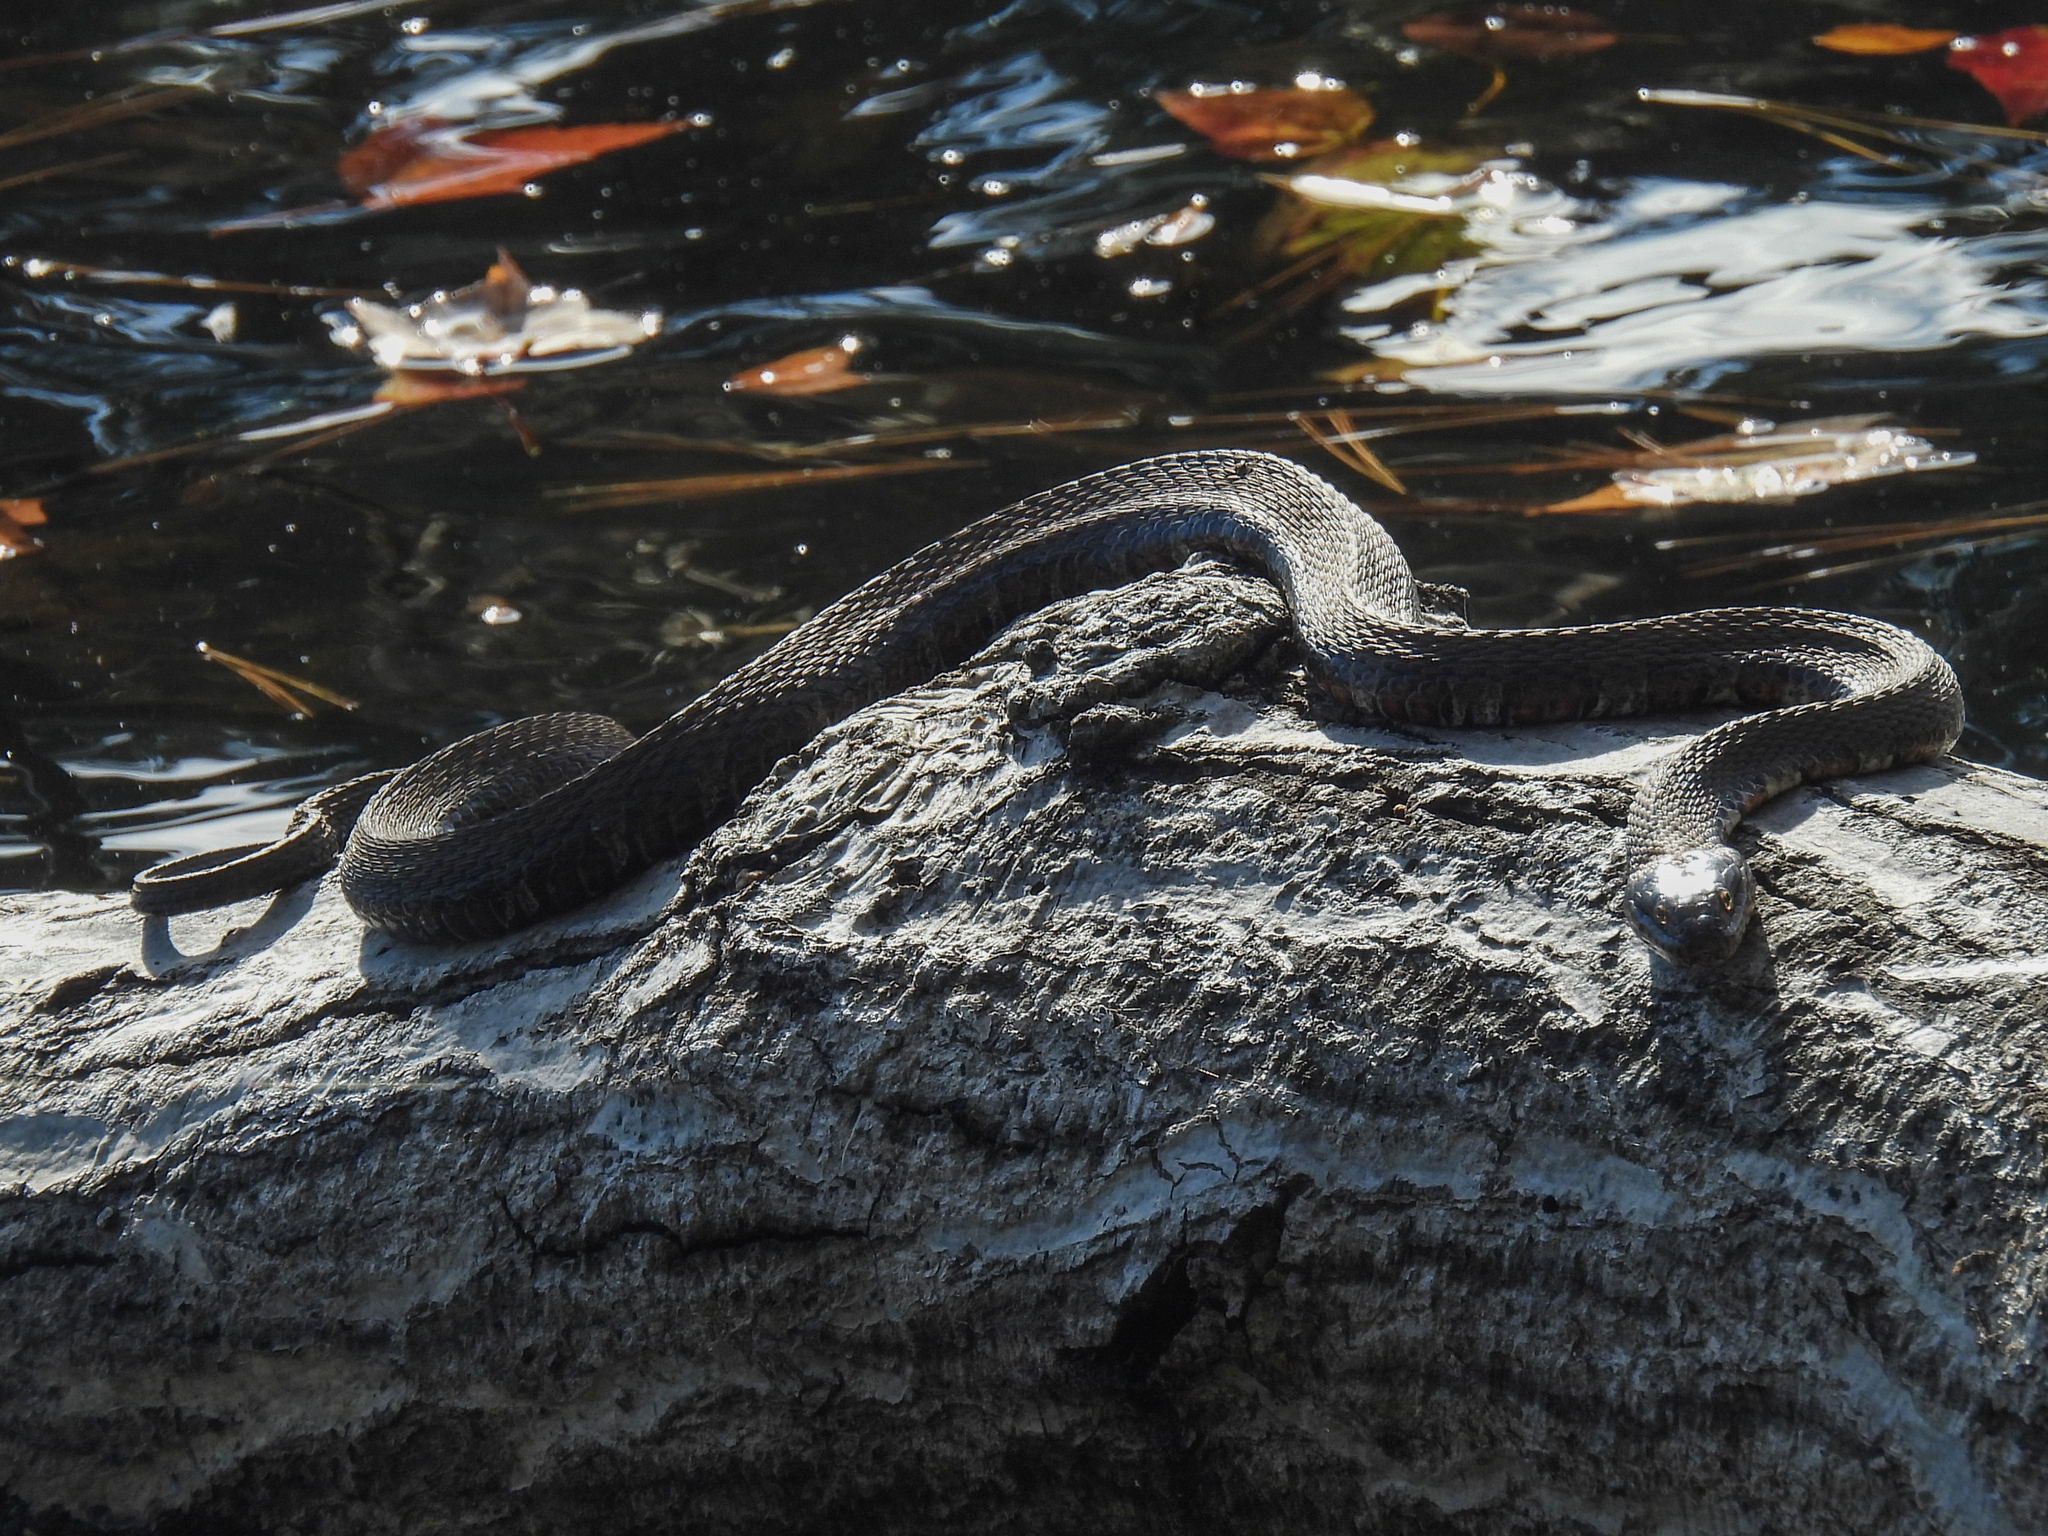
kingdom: Animalia
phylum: Chordata
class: Squamata
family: Colubridae
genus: Nerodia
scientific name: Nerodia sipedon
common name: Northern water snake
